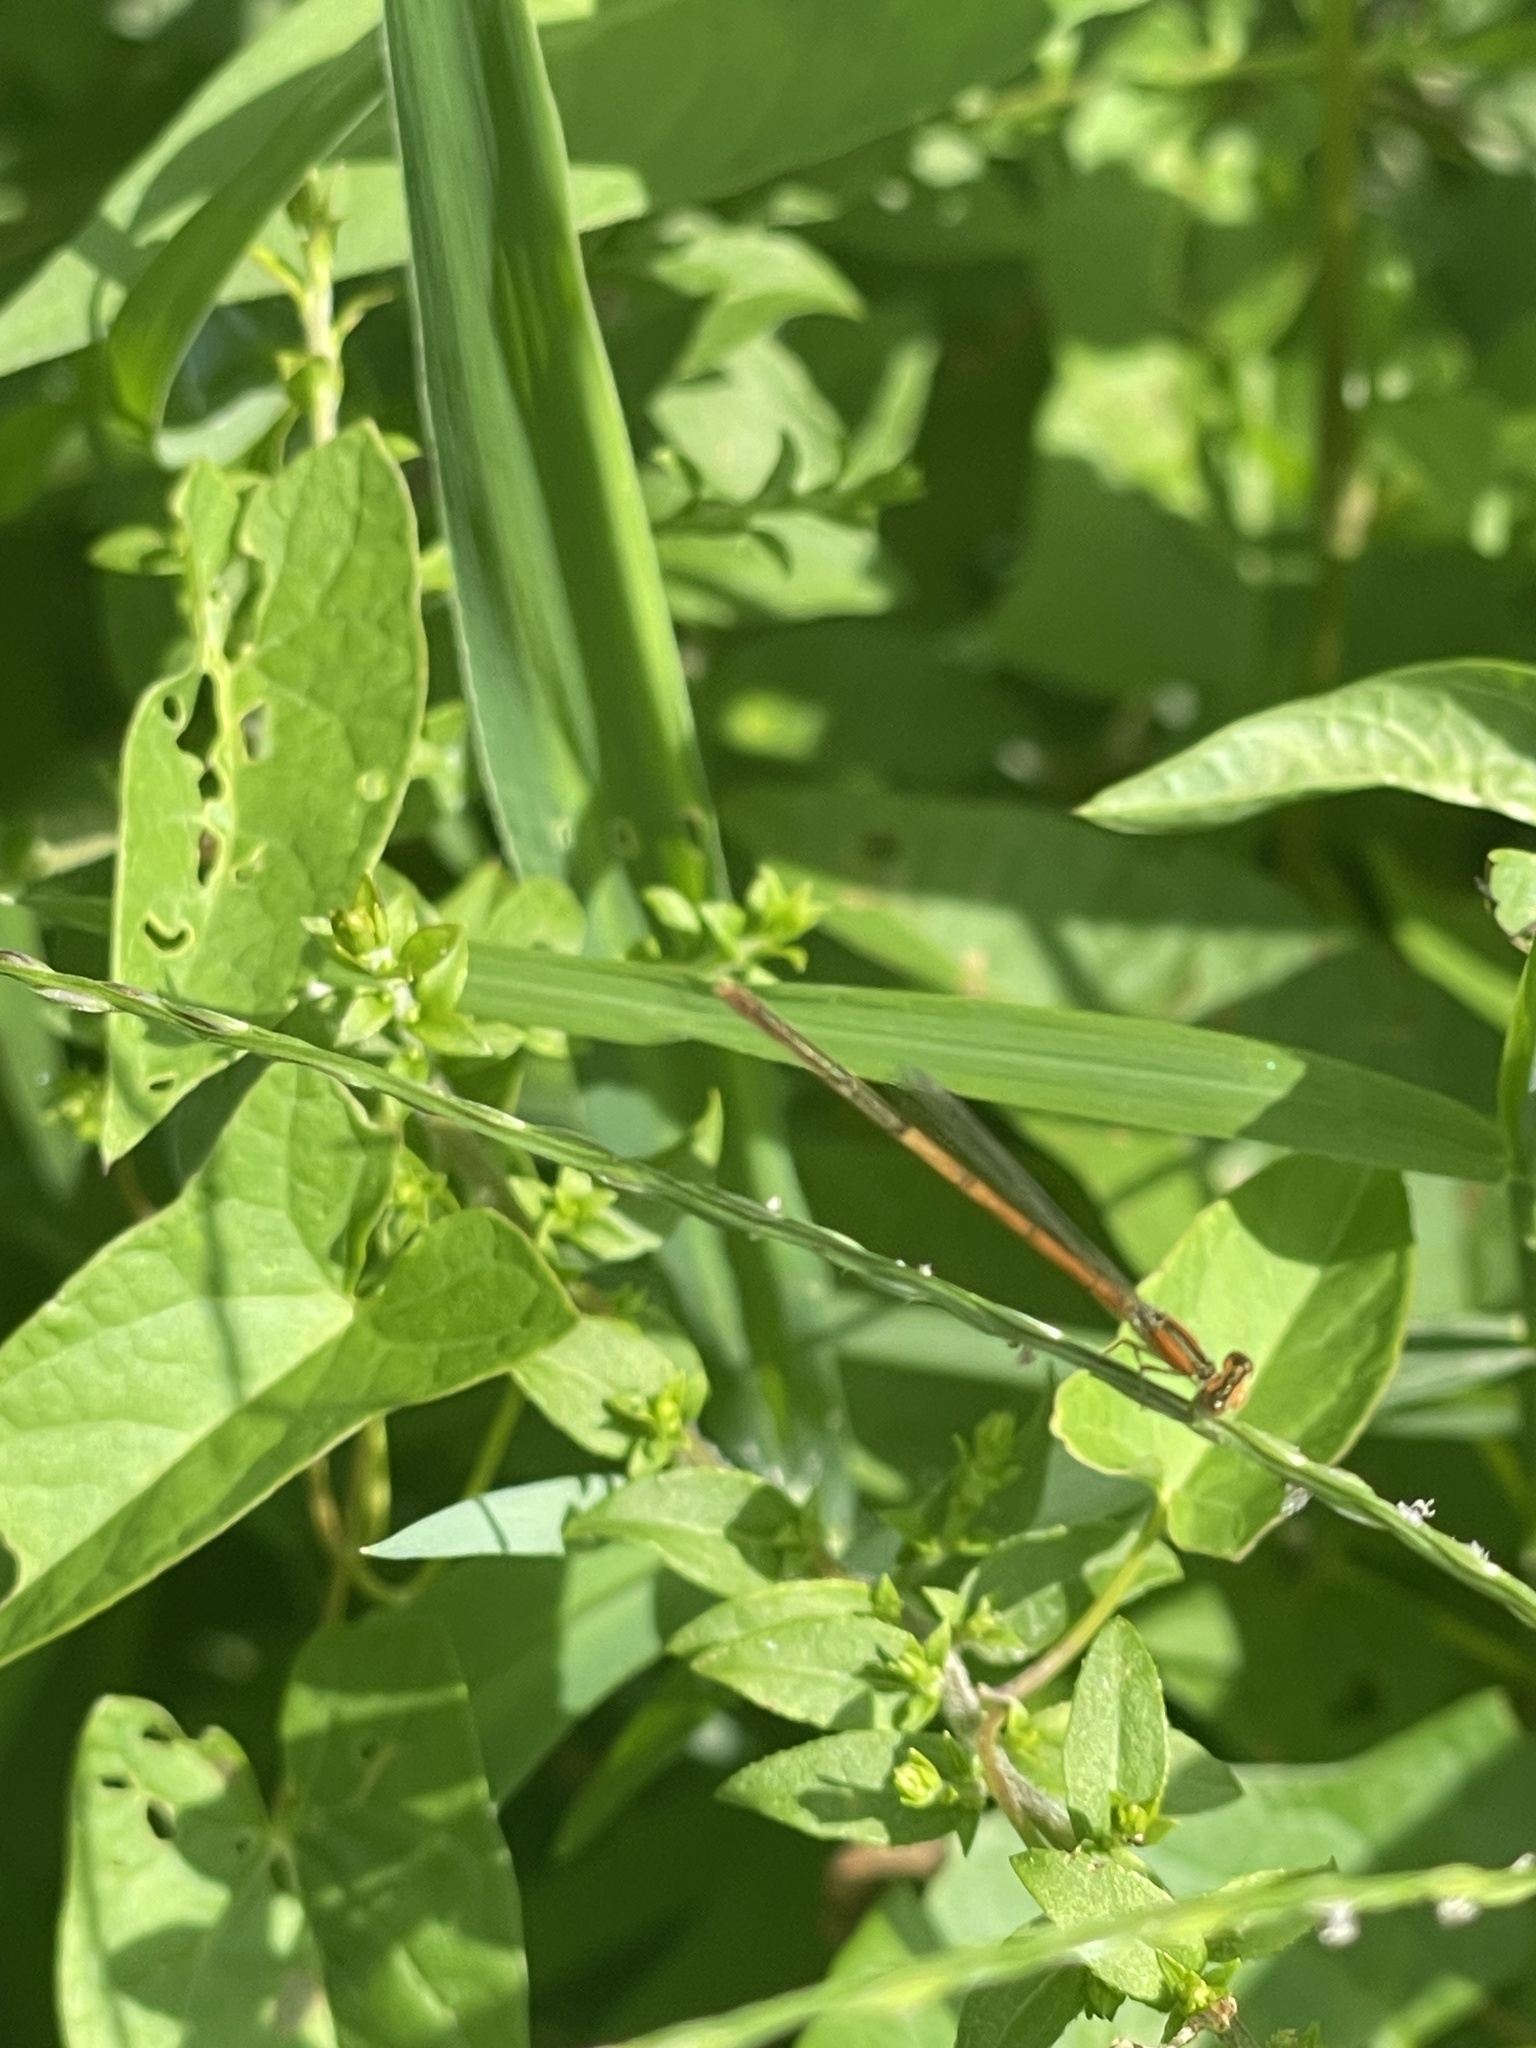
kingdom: Animalia
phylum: Arthropoda
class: Insecta
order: Odonata
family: Coenagrionidae
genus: Ischnura
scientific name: Ischnura hastata
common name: Citrine forktail
